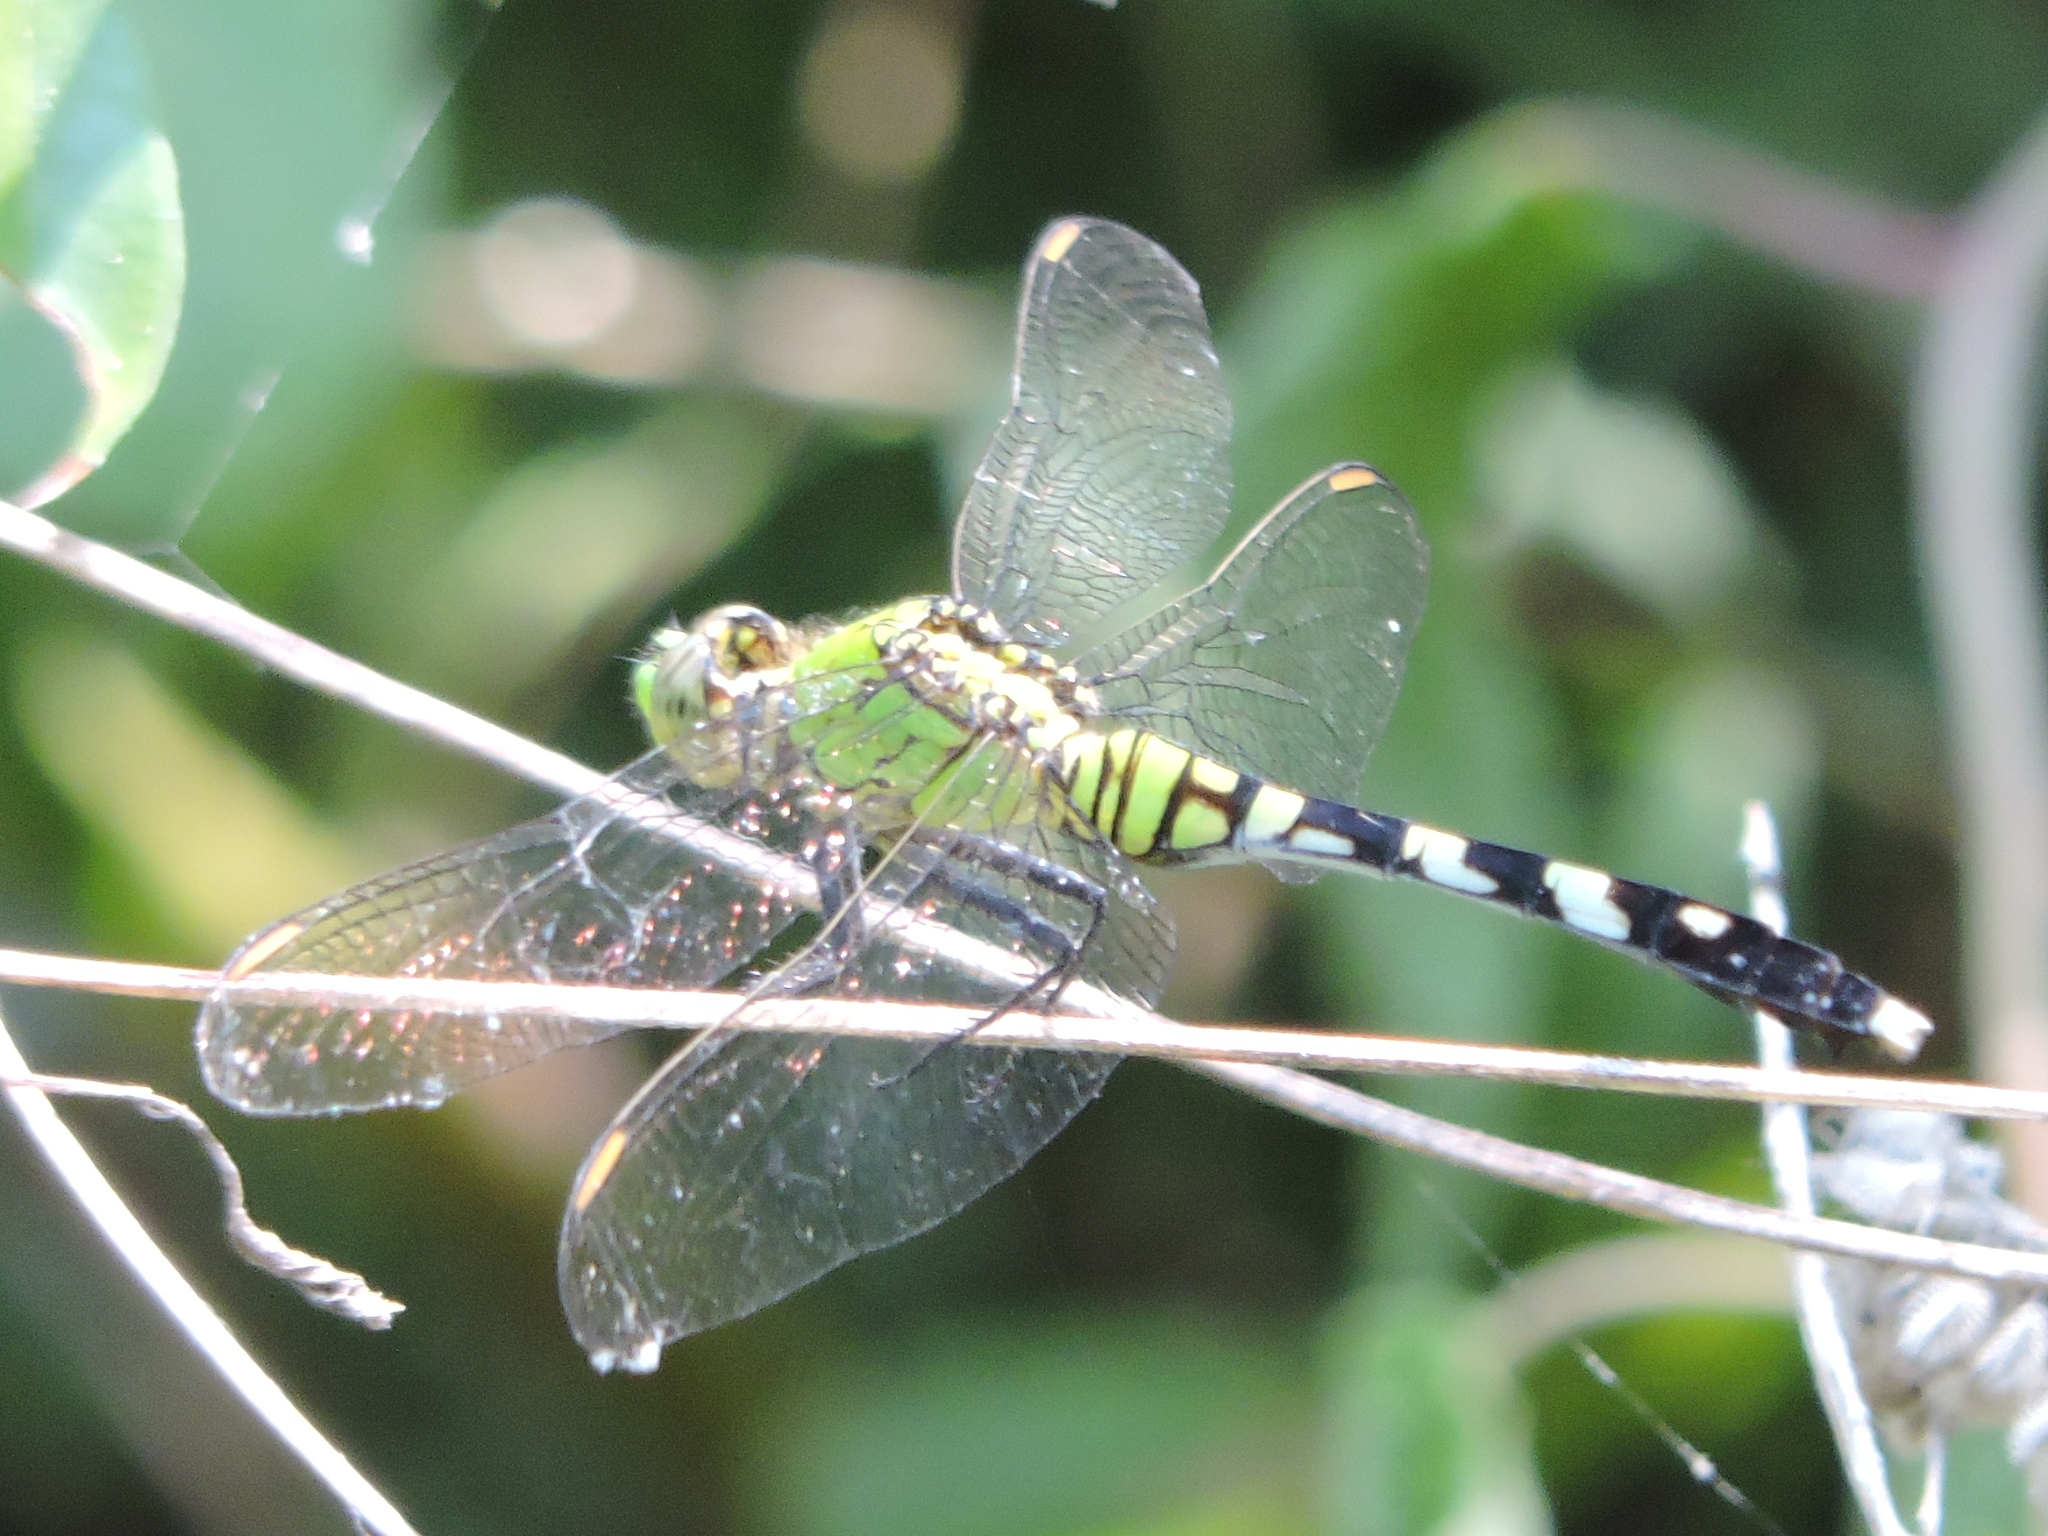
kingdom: Animalia
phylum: Arthropoda
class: Insecta
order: Odonata
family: Libellulidae
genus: Erythemis
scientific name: Erythemis simplicicollis
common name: Eastern pondhawk
